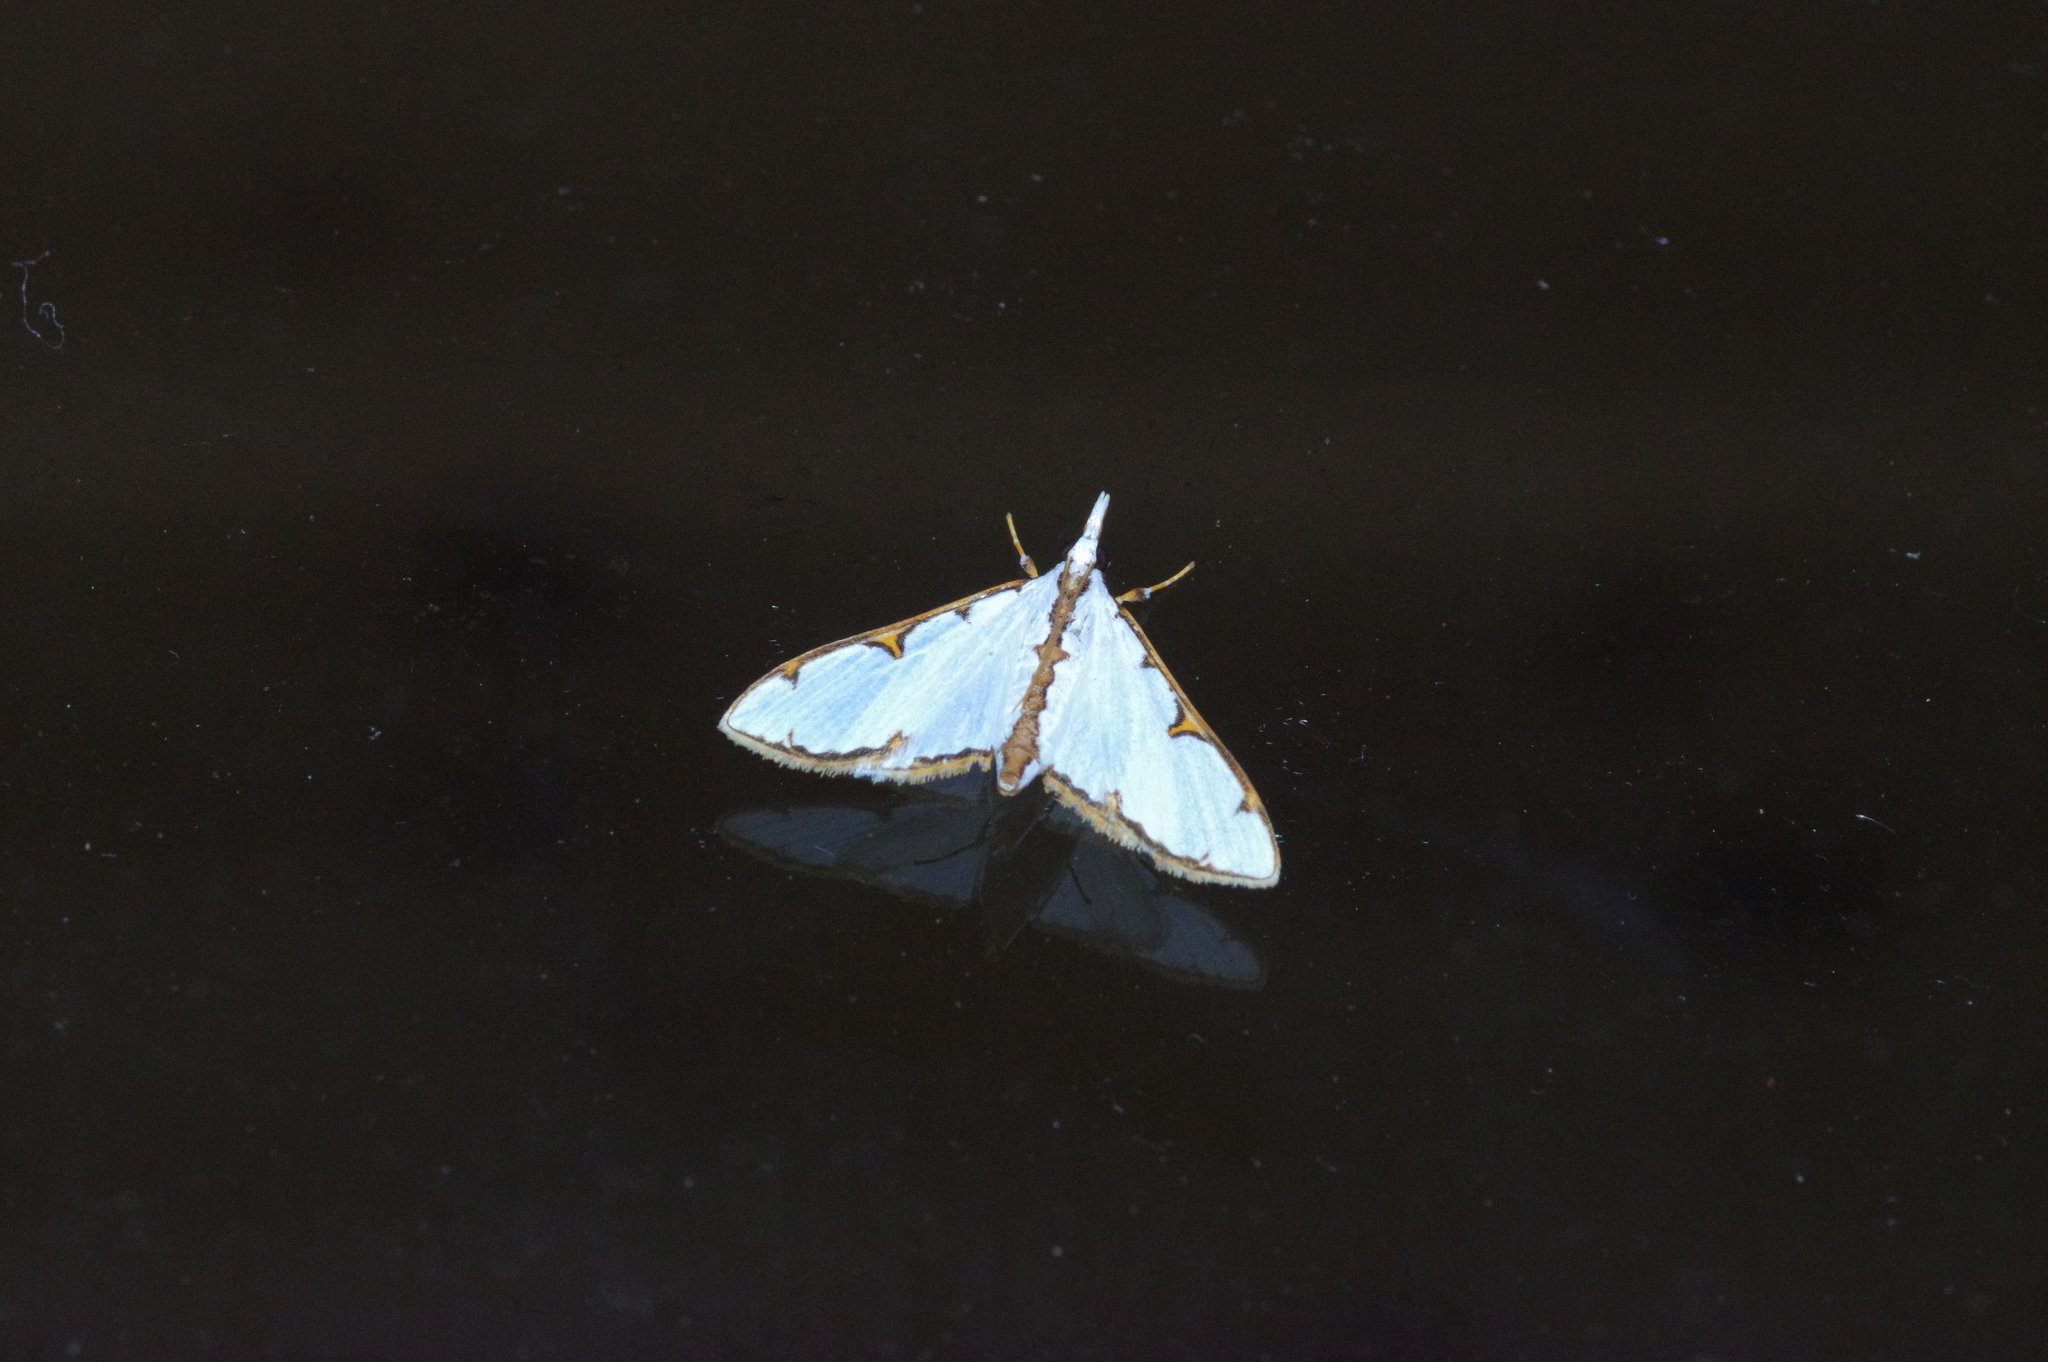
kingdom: Animalia
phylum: Arthropoda
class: Insecta
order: Lepidoptera
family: Crambidae
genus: Cirrhochrista
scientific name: Cirrhochrista brizoalis
